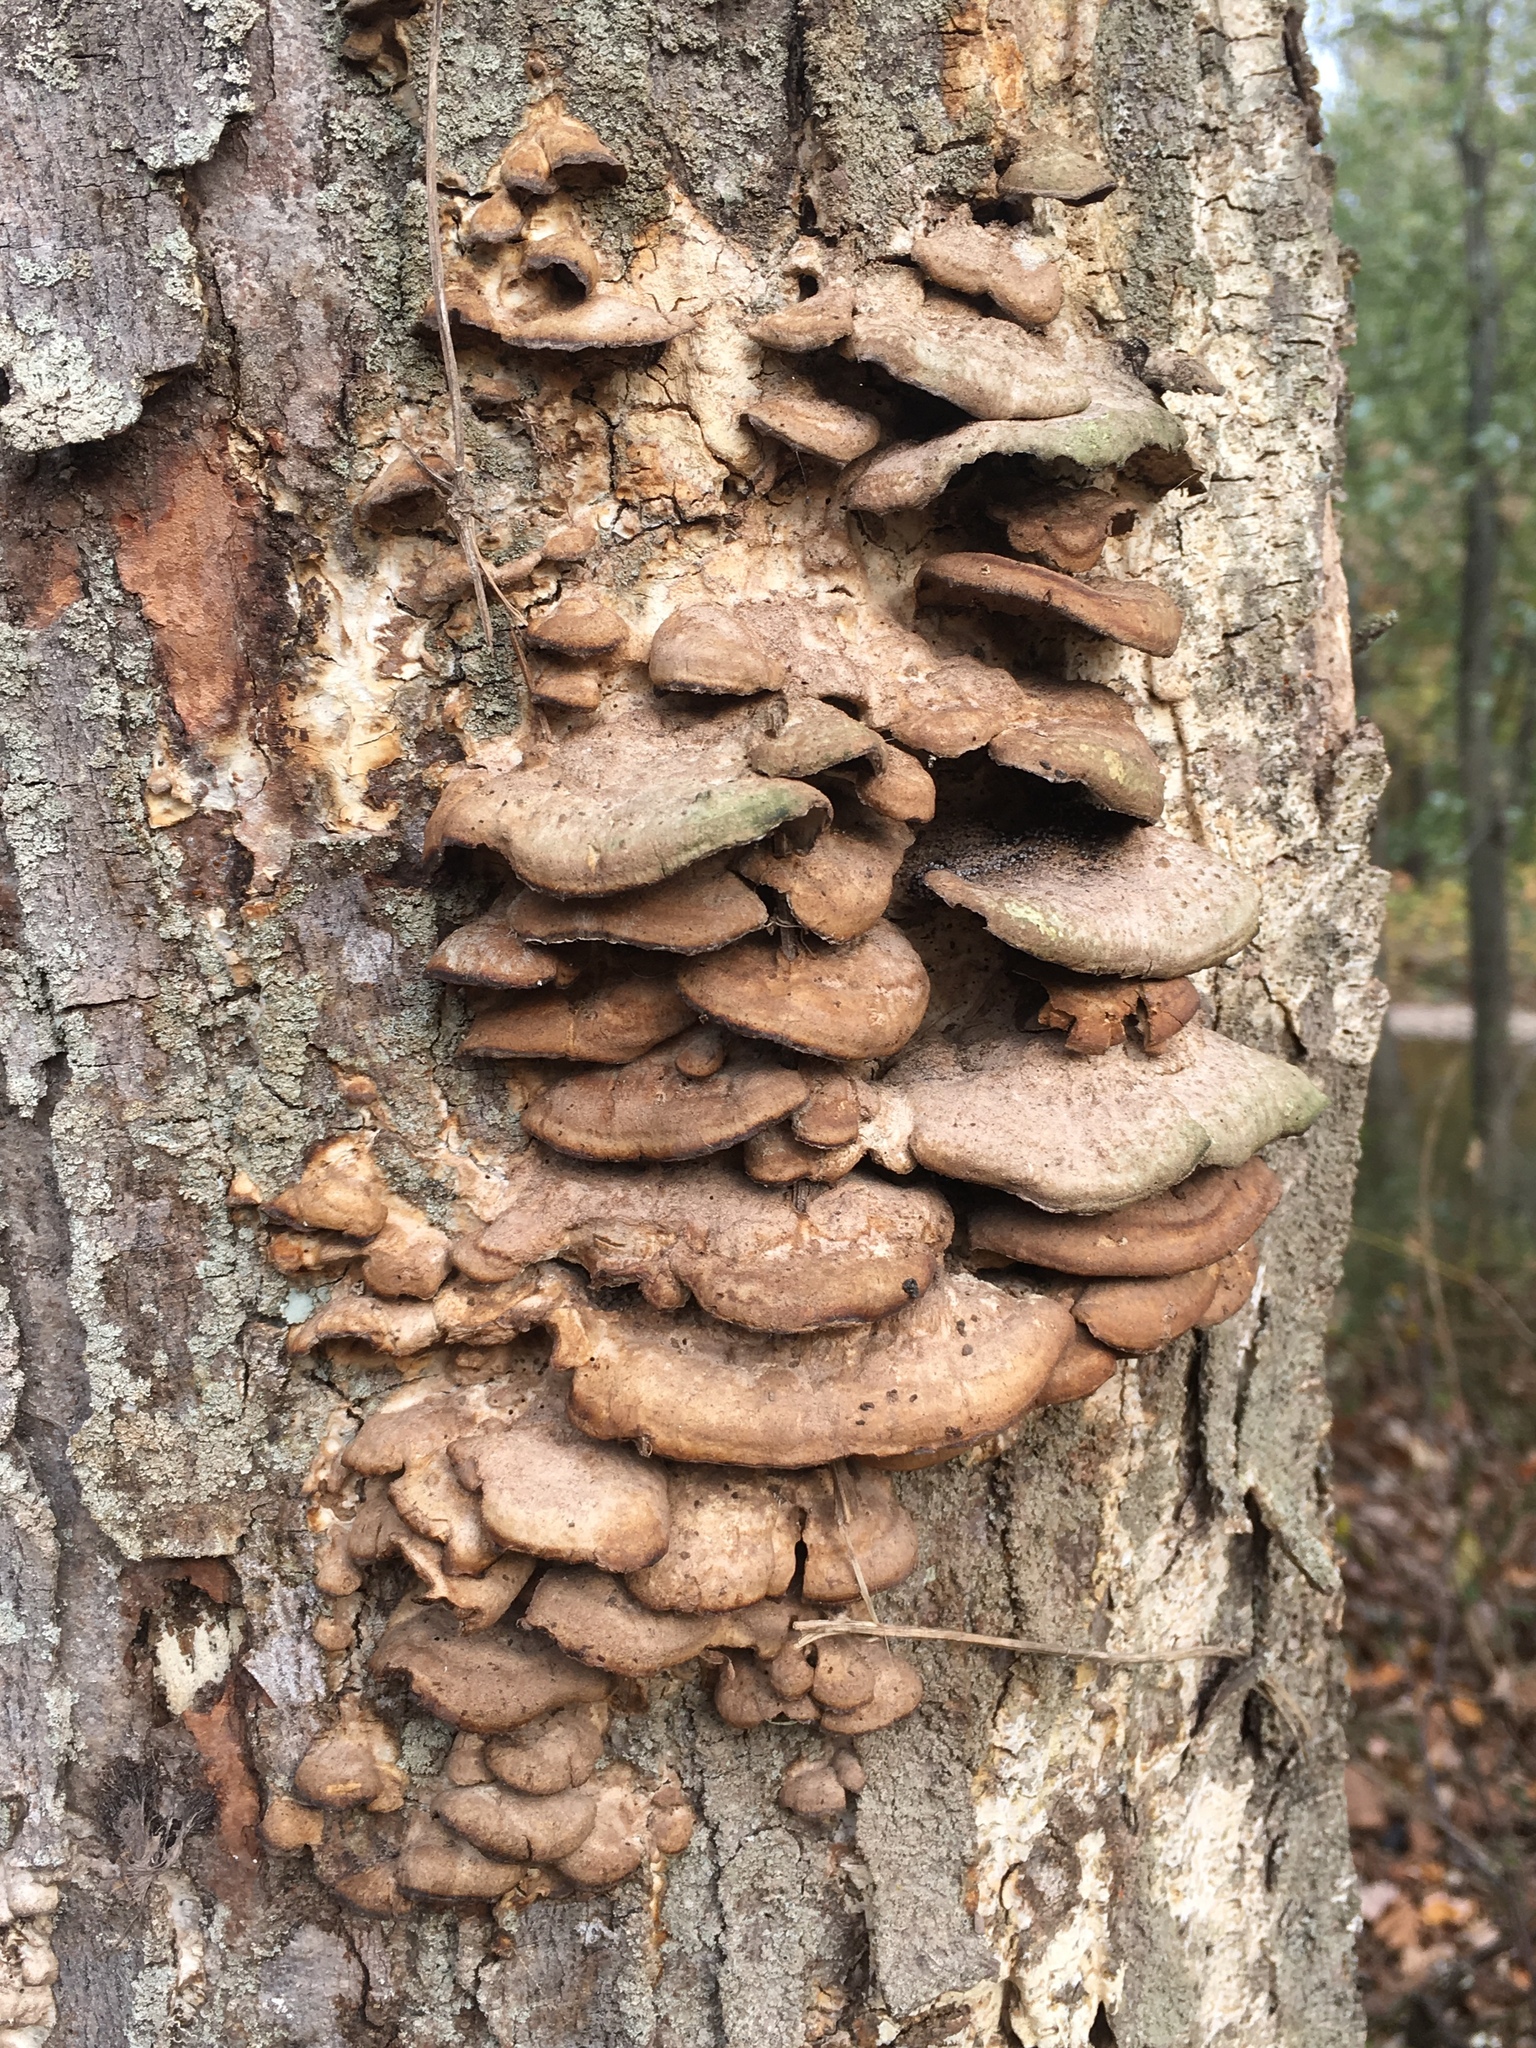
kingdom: Fungi
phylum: Basidiomycota
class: Agaricomycetes
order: Hymenochaetales
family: Hymenochaetaceae
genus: Phellinus
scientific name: Phellinus gilvus
